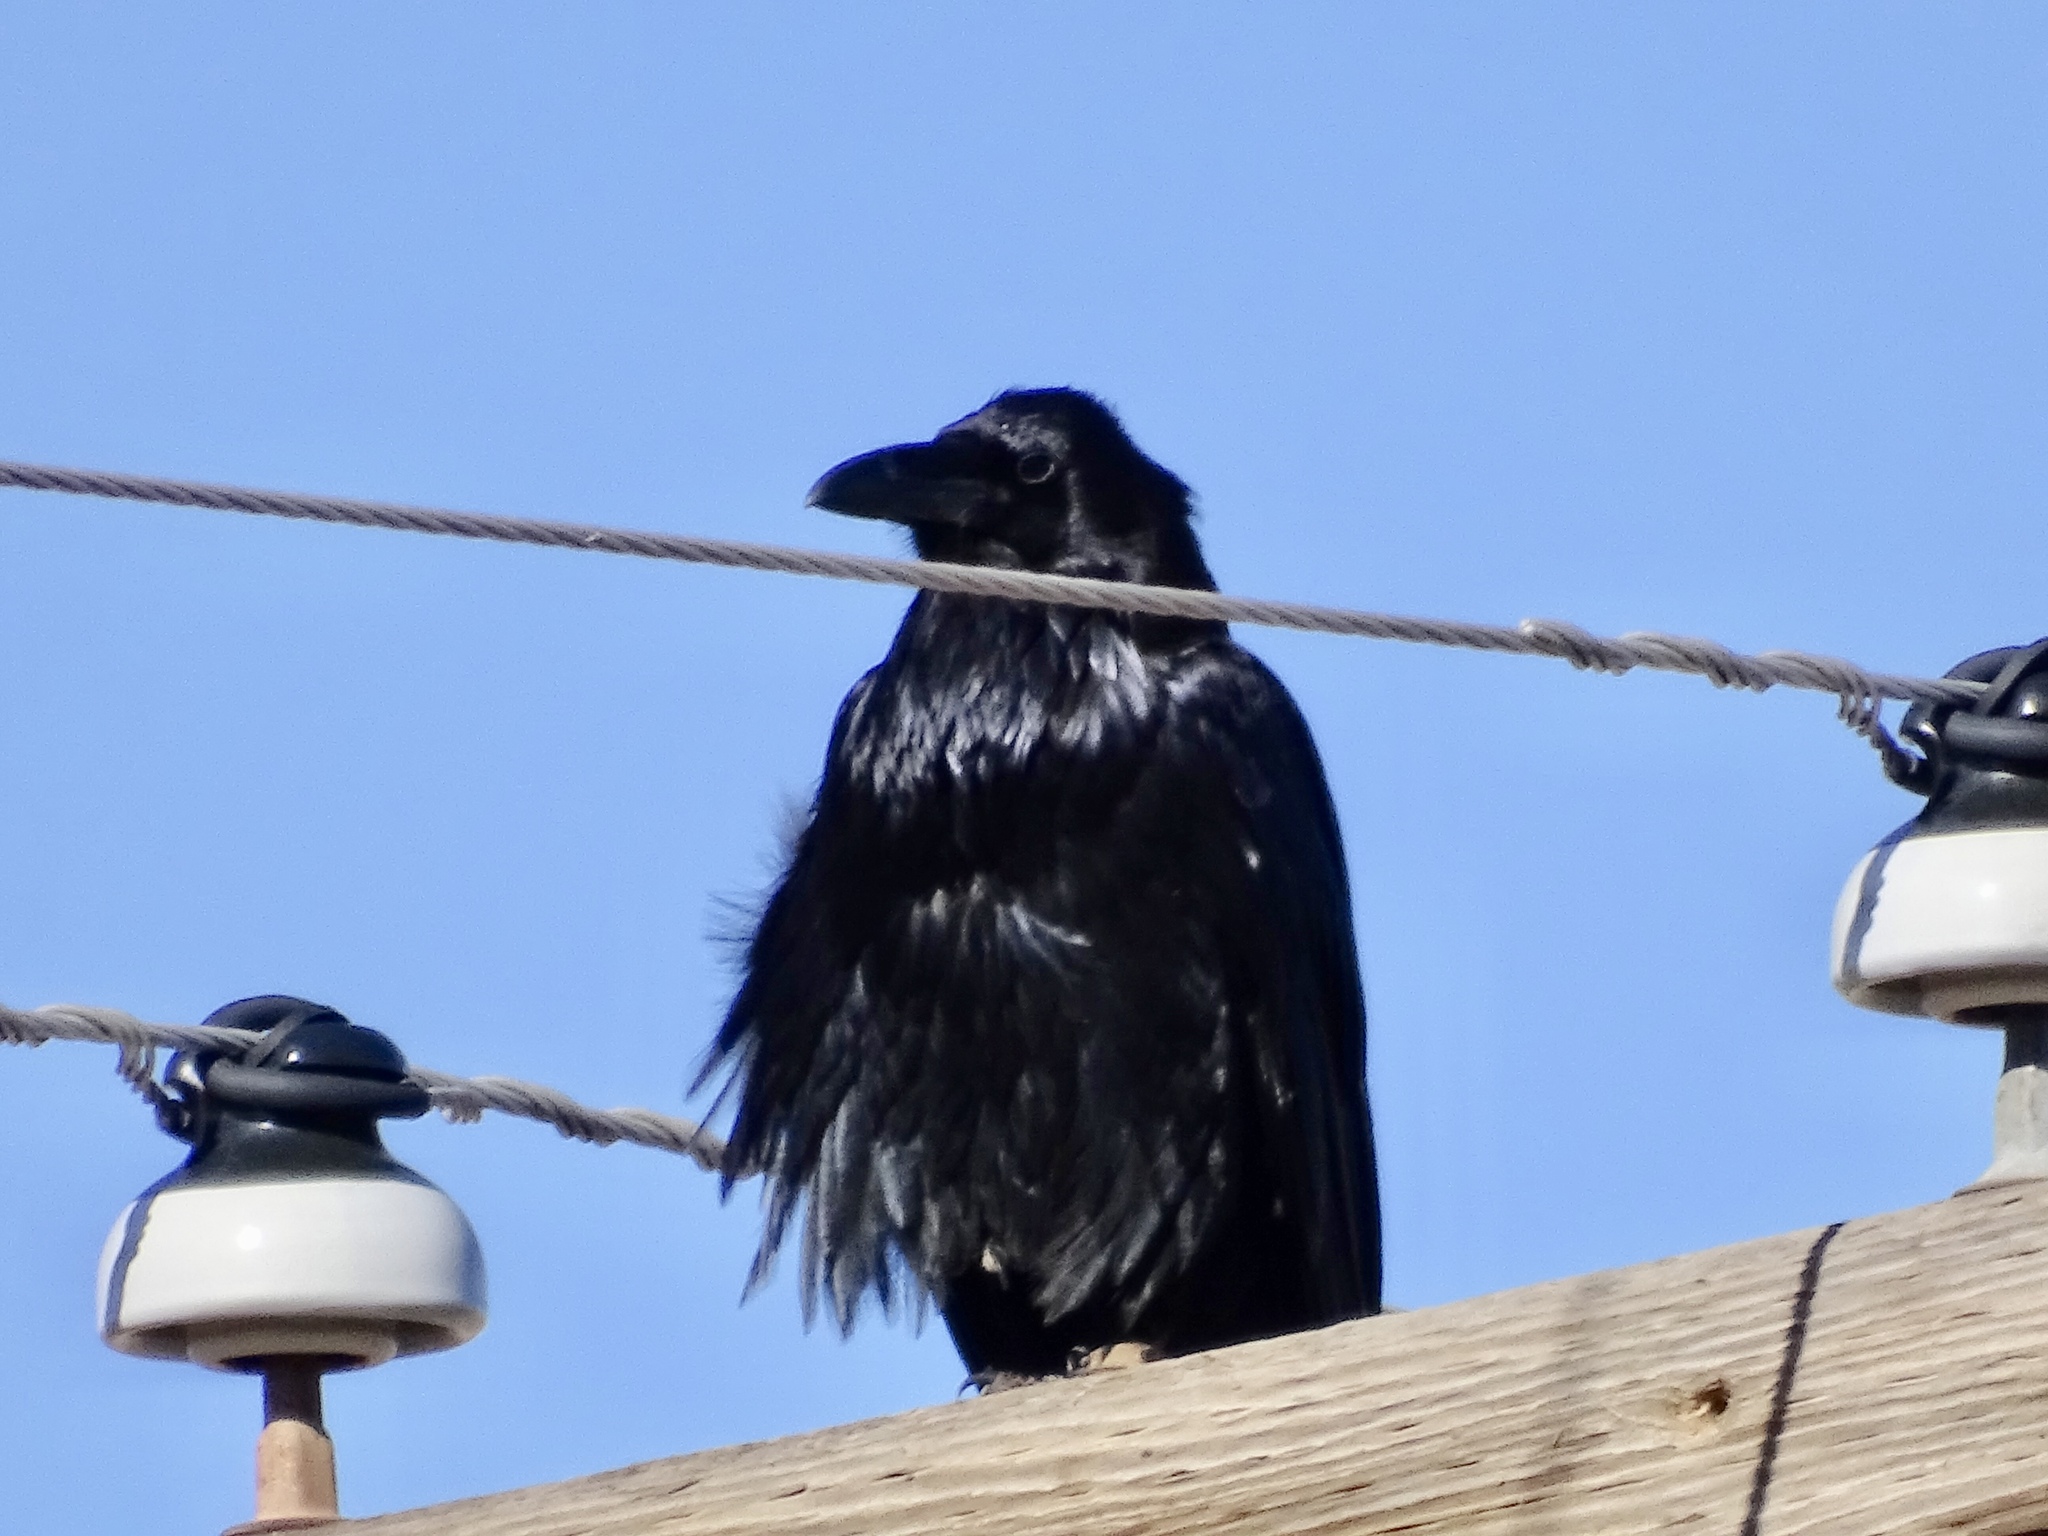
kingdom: Animalia
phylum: Chordata
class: Aves
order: Passeriformes
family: Corvidae
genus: Corvus
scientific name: Corvus corax
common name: Common raven
